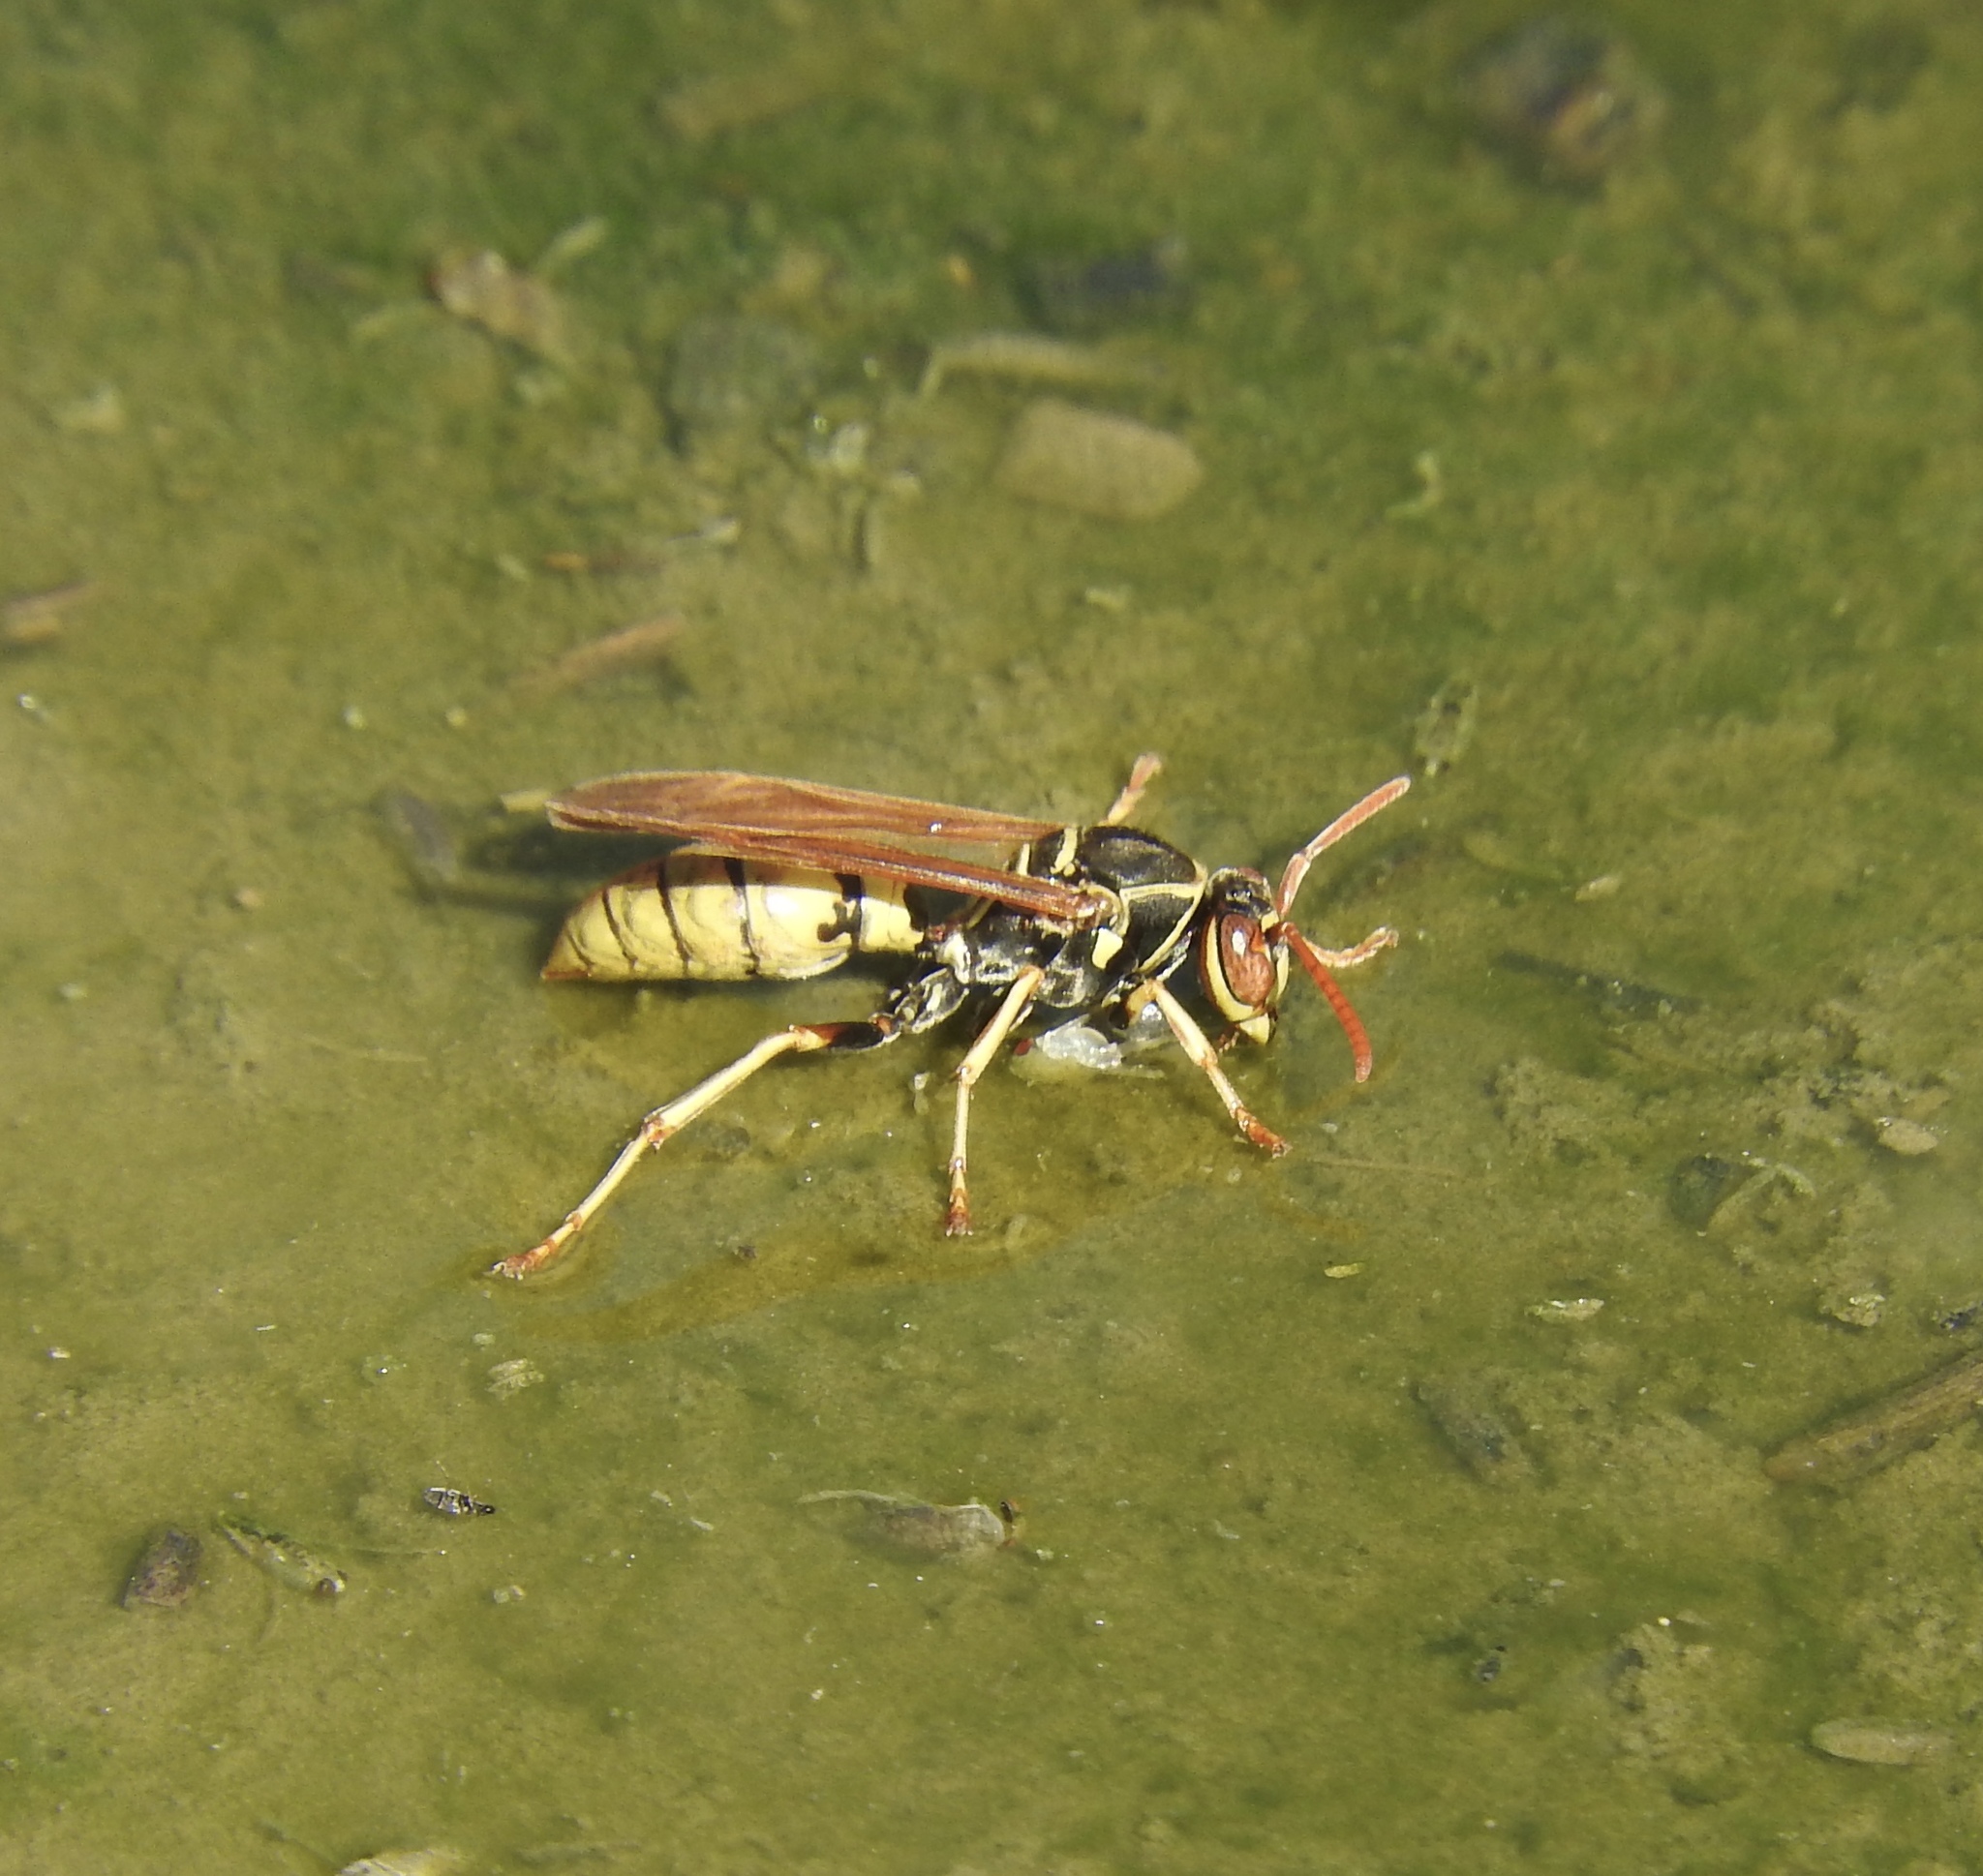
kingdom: Animalia
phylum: Arthropoda
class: Insecta
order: Hymenoptera
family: Eumenidae
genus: Polistes
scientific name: Polistes aurifer
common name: Paper wasp
